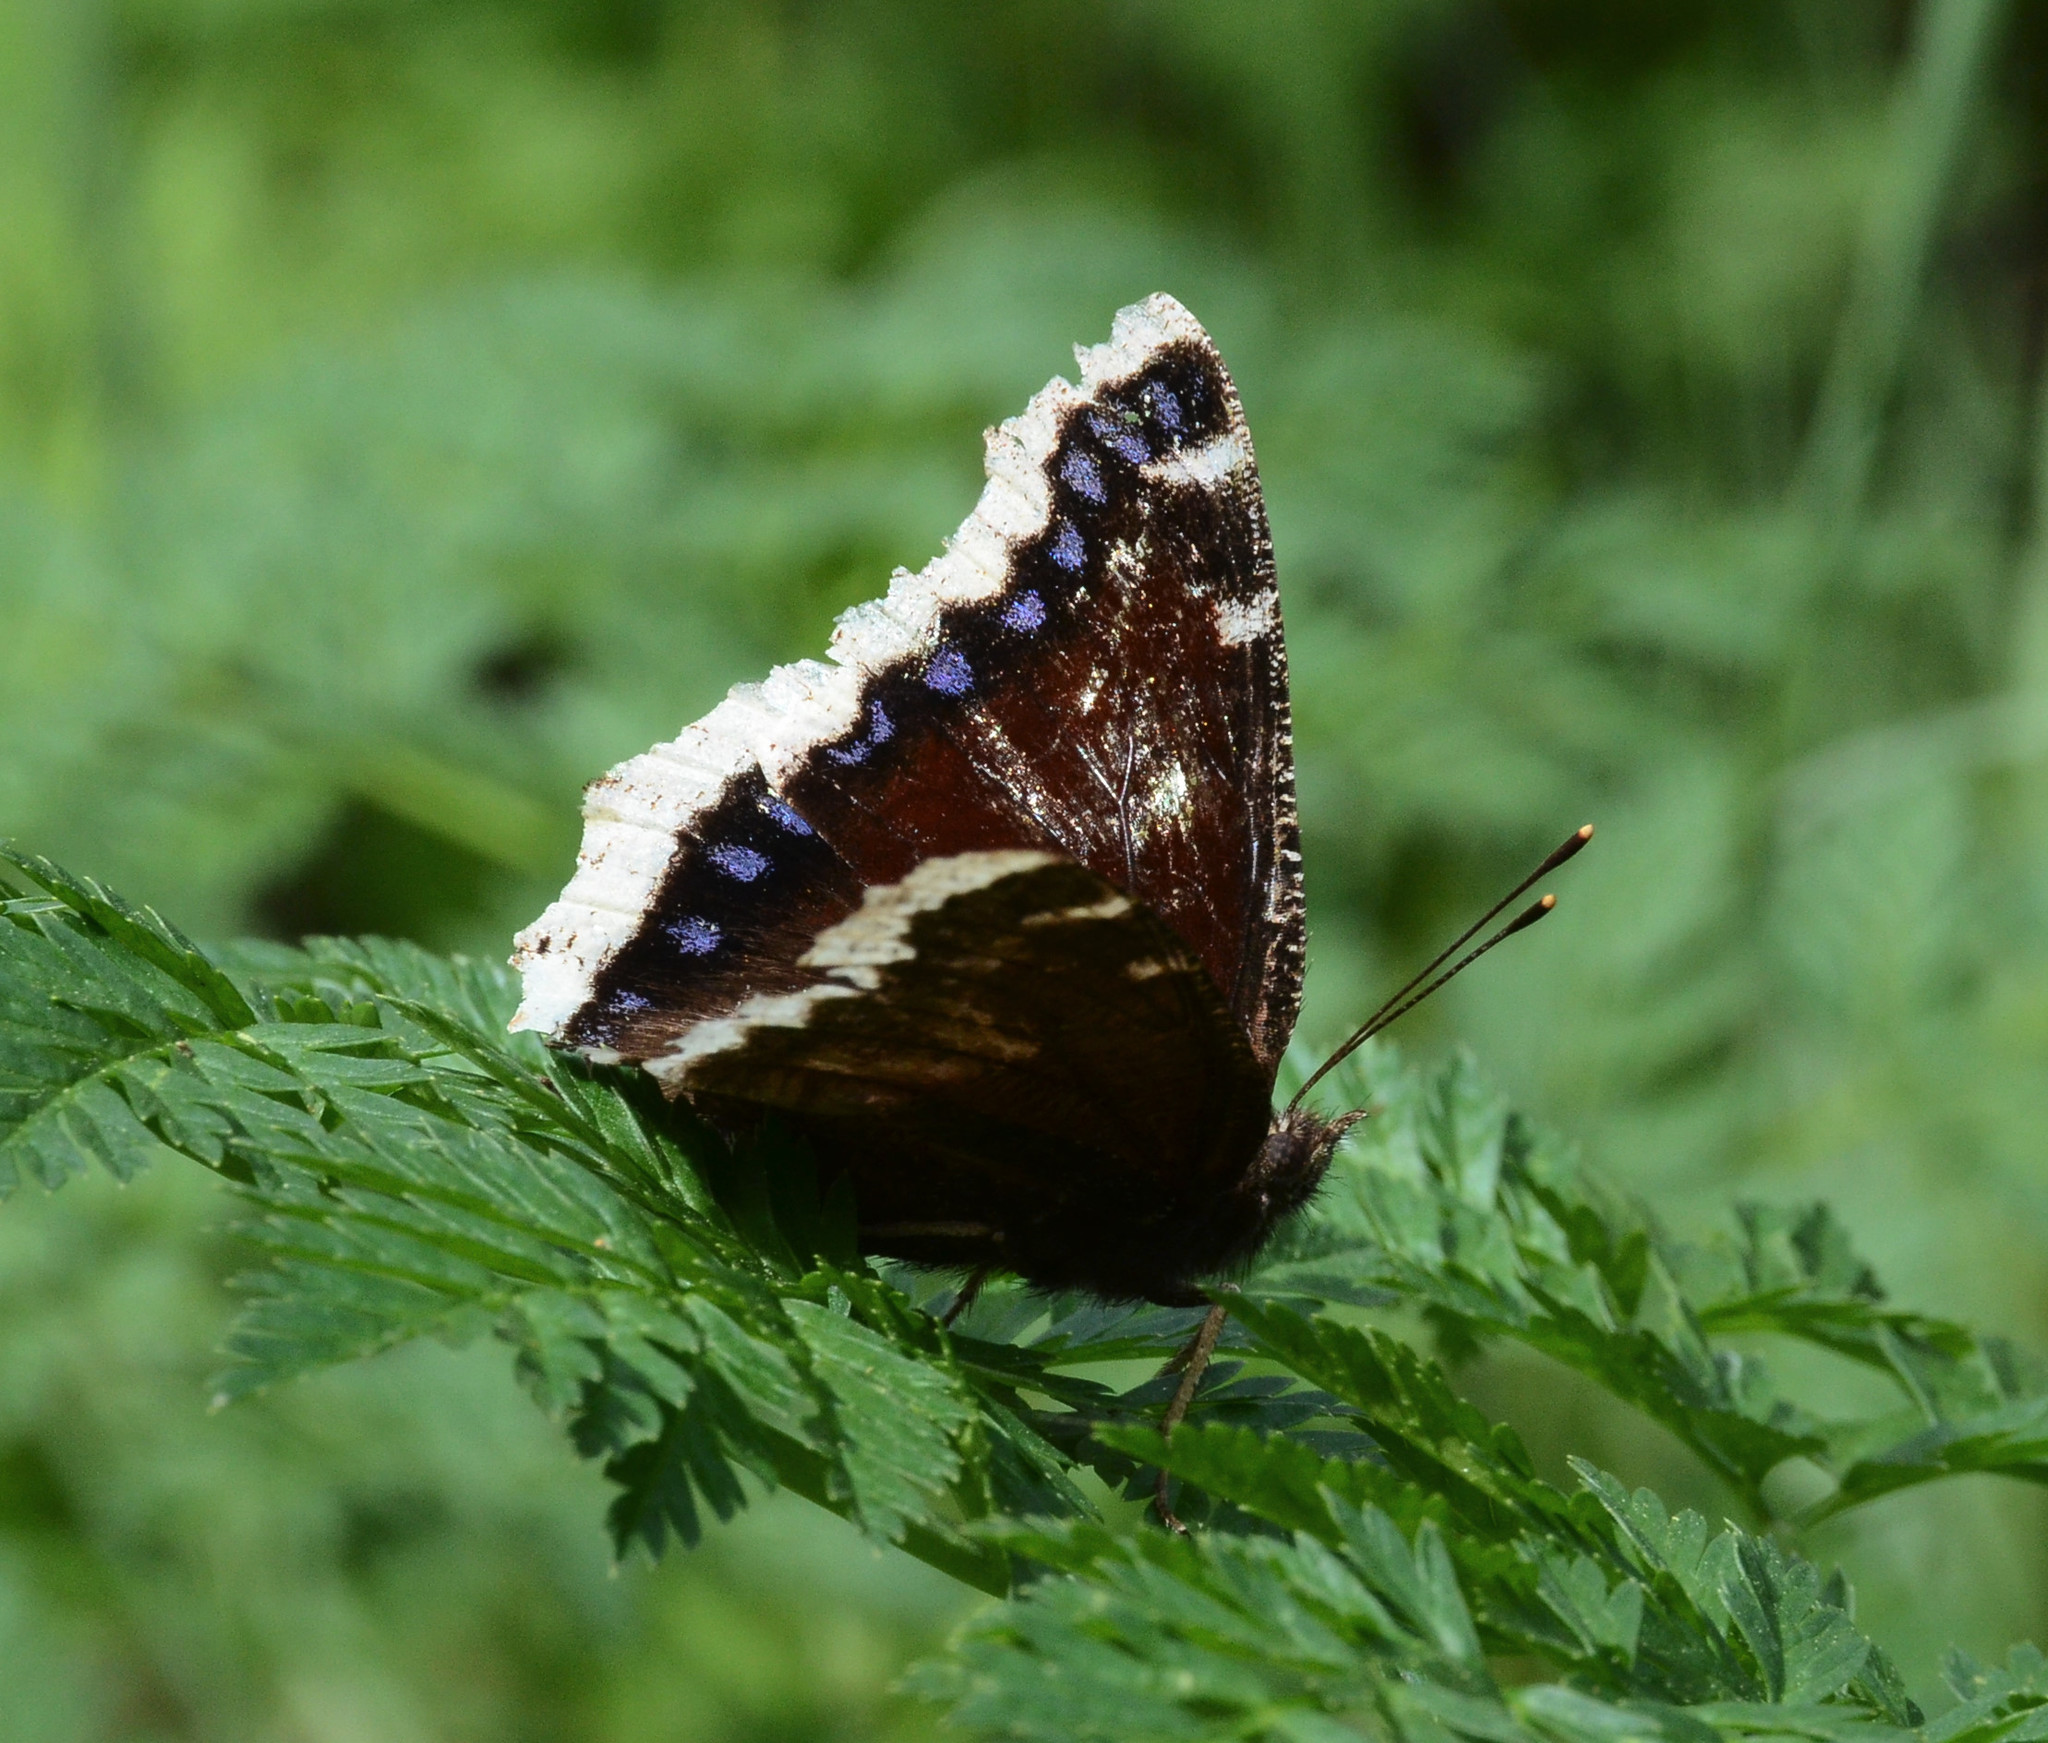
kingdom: Animalia
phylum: Arthropoda
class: Insecta
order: Lepidoptera
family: Nymphalidae
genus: Nymphalis
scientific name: Nymphalis antiopa
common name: Camberwell beauty
